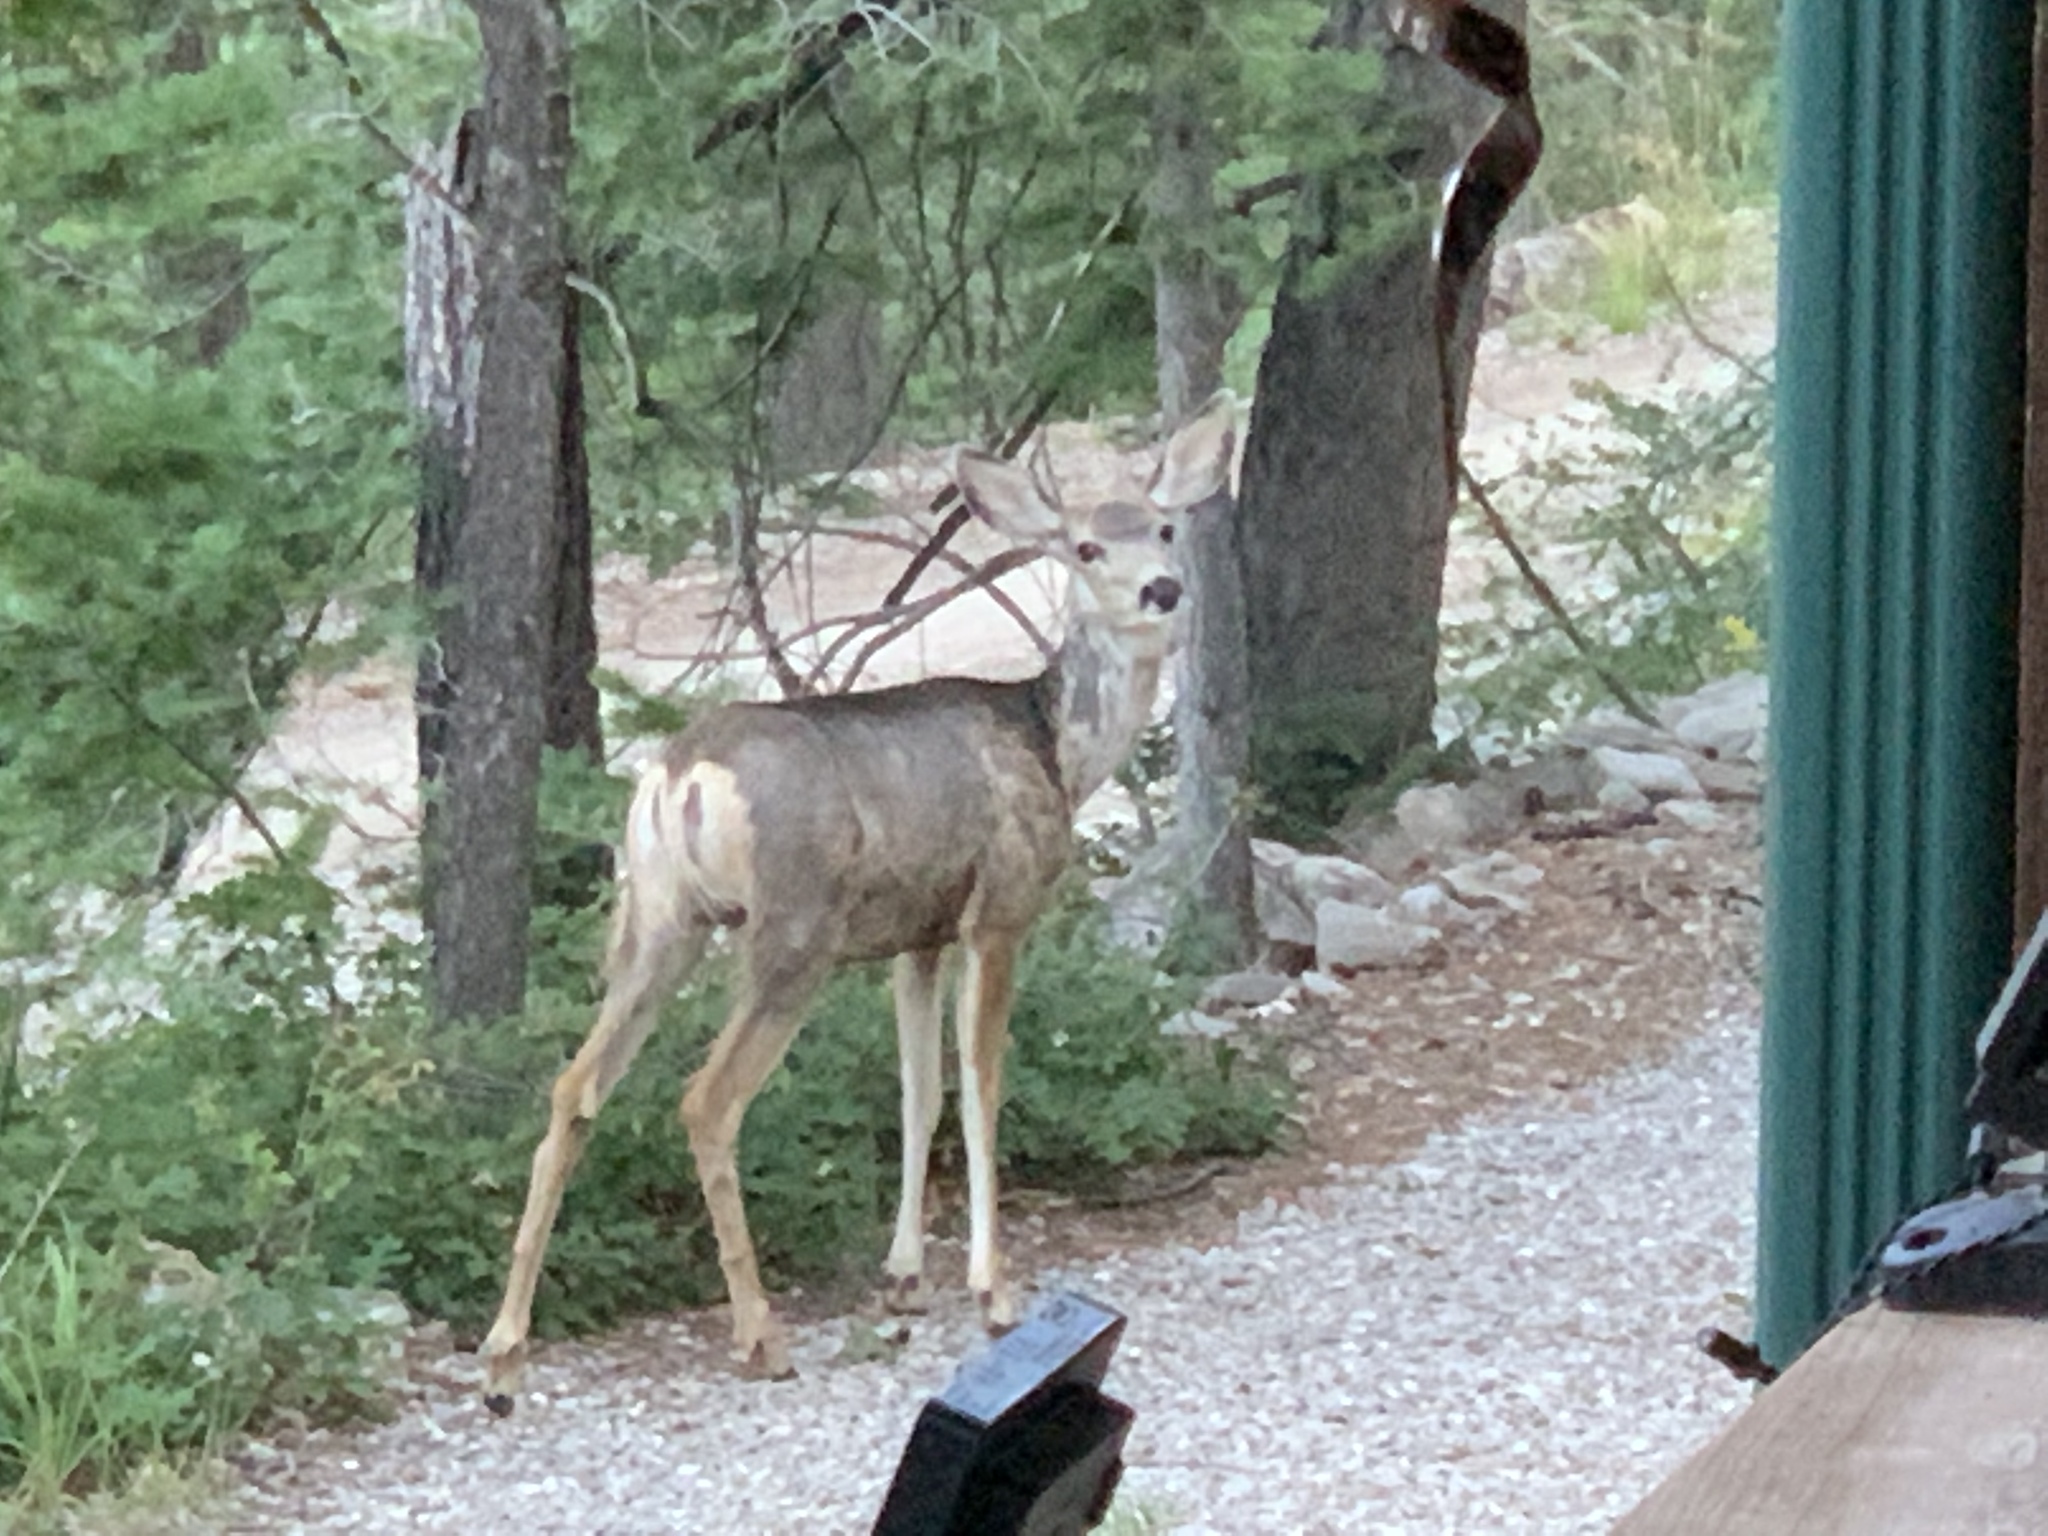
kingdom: Animalia
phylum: Chordata
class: Mammalia
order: Artiodactyla
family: Cervidae
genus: Odocoileus
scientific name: Odocoileus hemionus
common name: Mule deer
